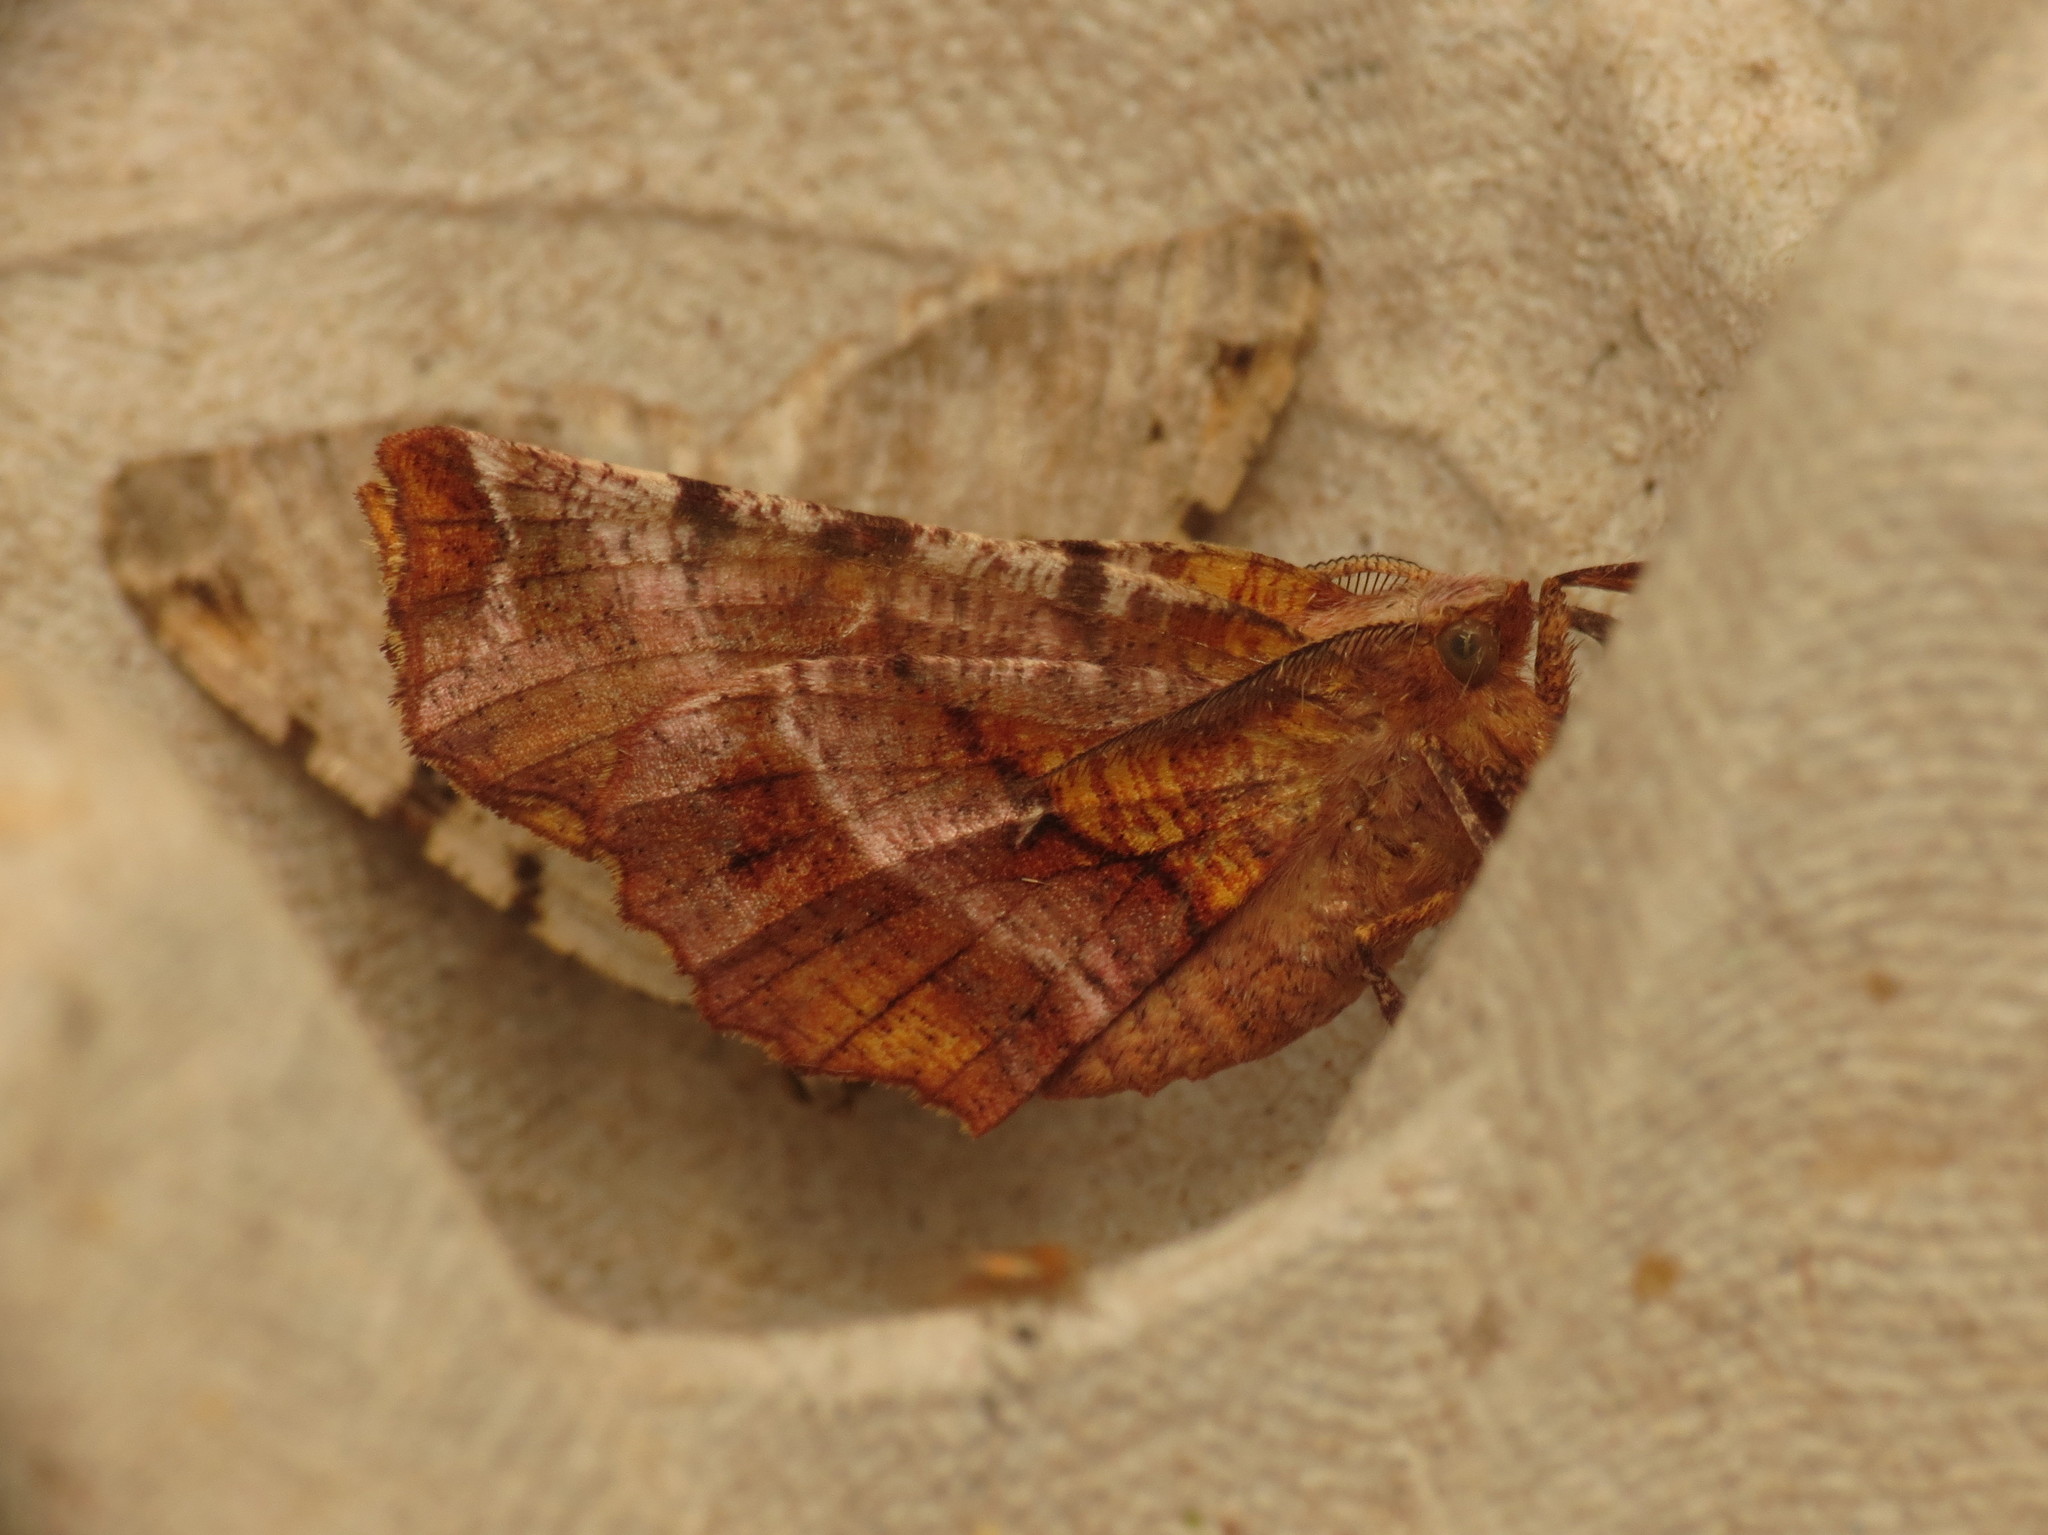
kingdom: Animalia
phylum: Arthropoda
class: Insecta
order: Lepidoptera
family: Geometridae
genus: Selenia
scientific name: Selenia dentaria
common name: Early thorn
